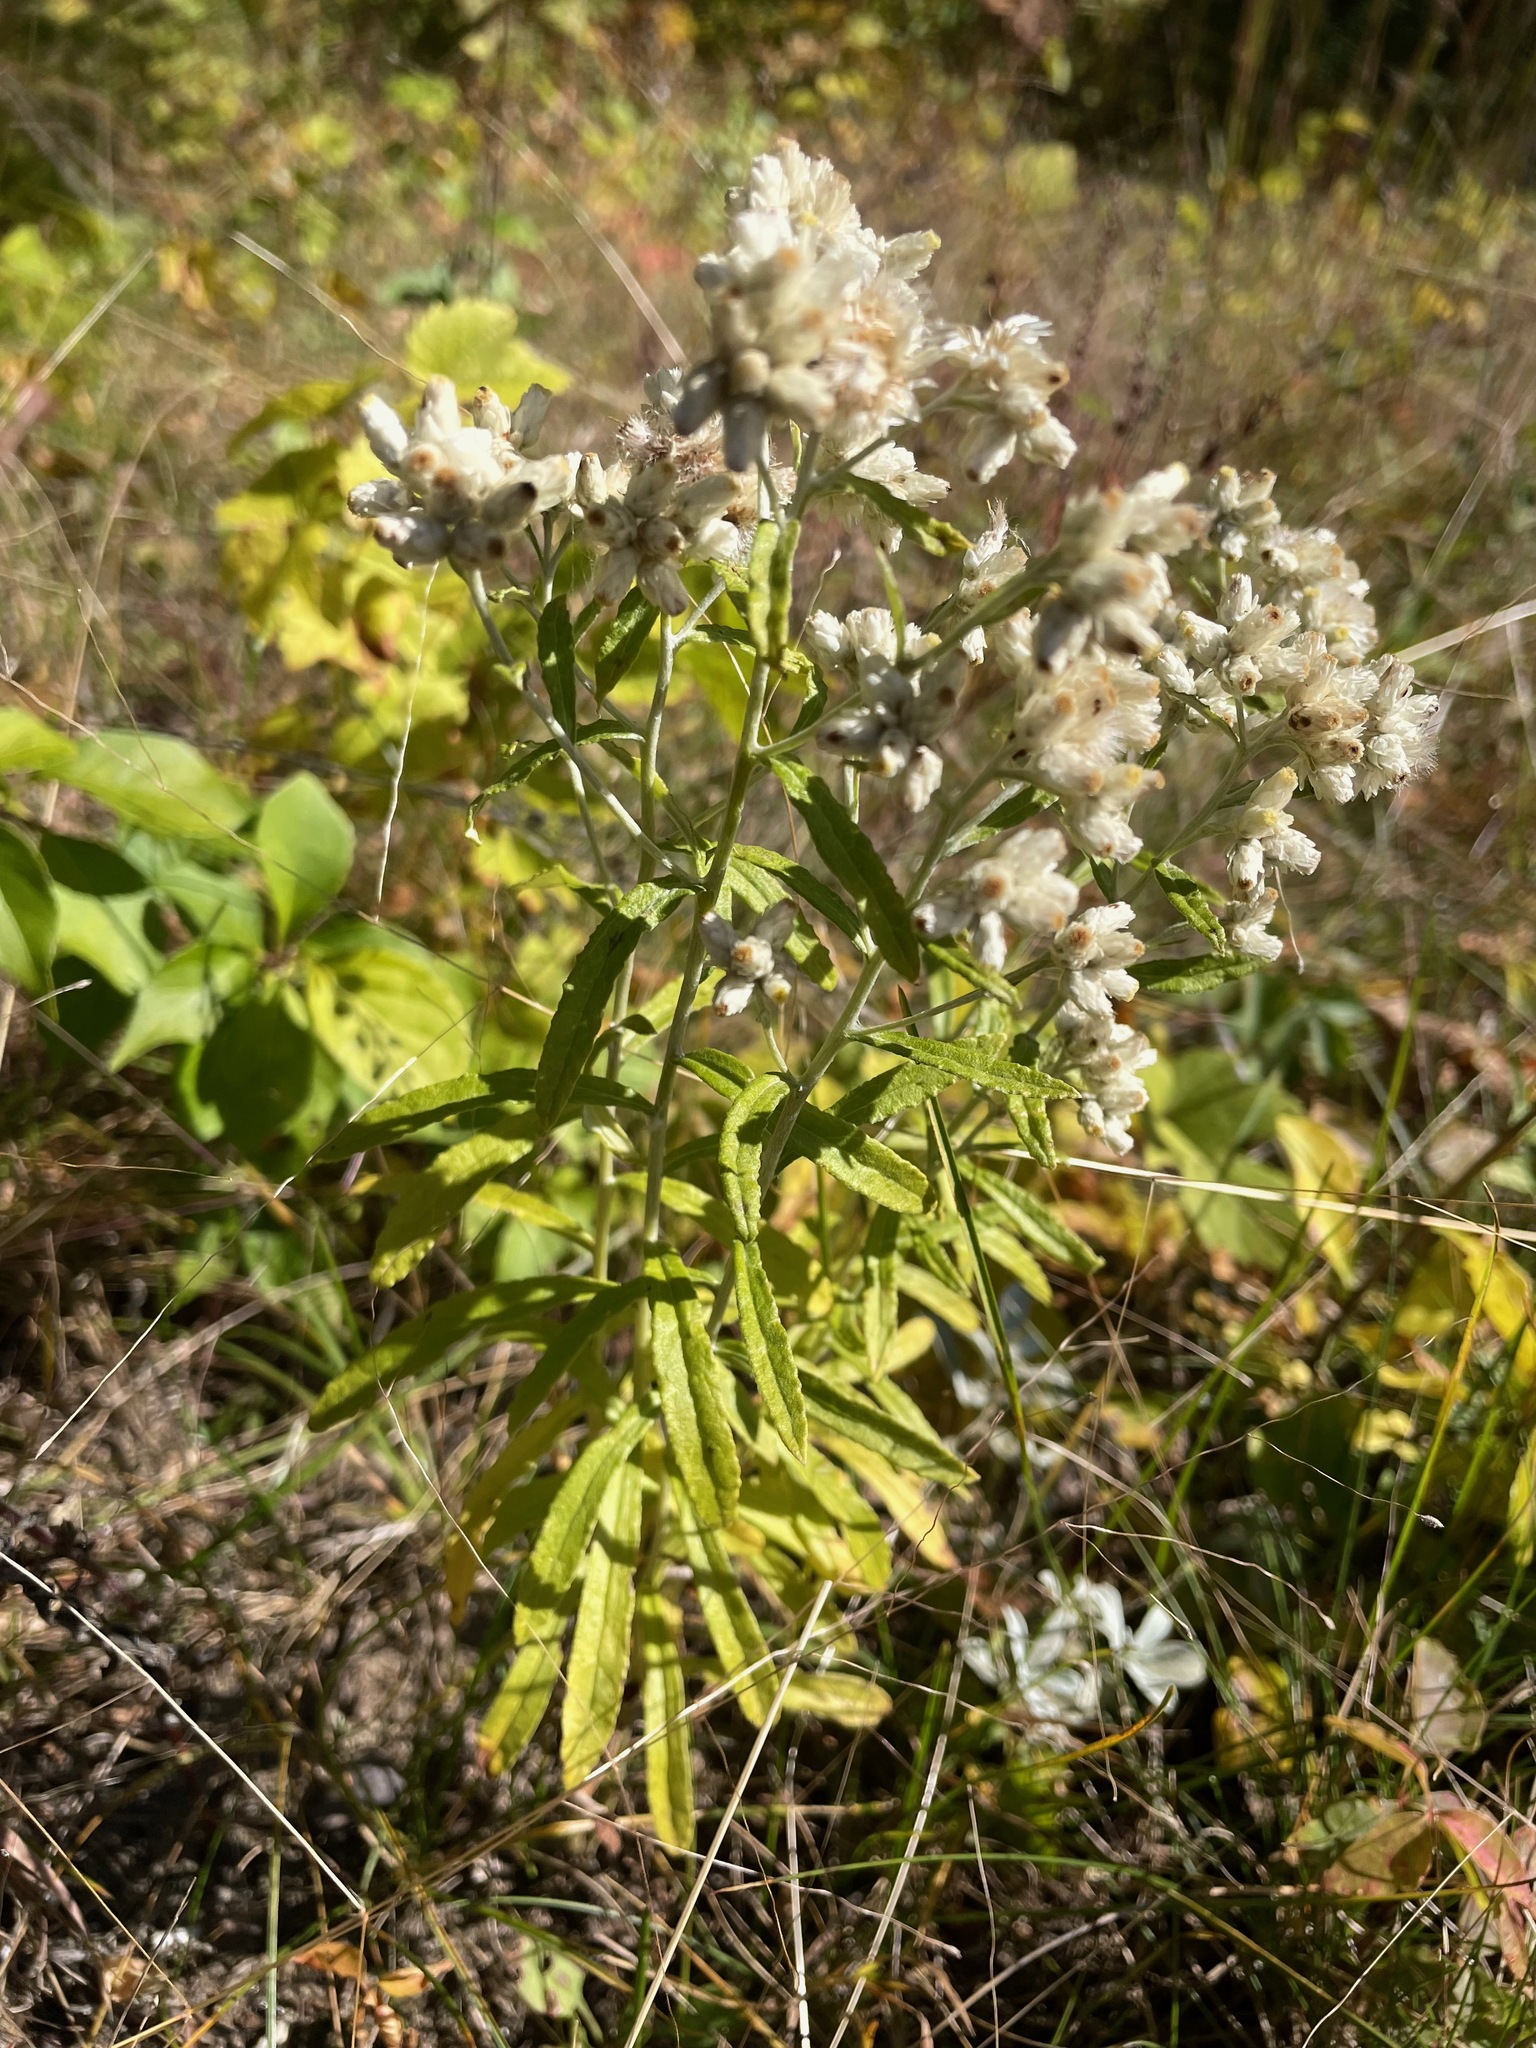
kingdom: Plantae
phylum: Tracheophyta
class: Magnoliopsida
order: Asterales
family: Asteraceae
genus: Pseudognaphalium
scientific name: Pseudognaphalium obtusifolium
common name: Eastern rabbit-tobacco
